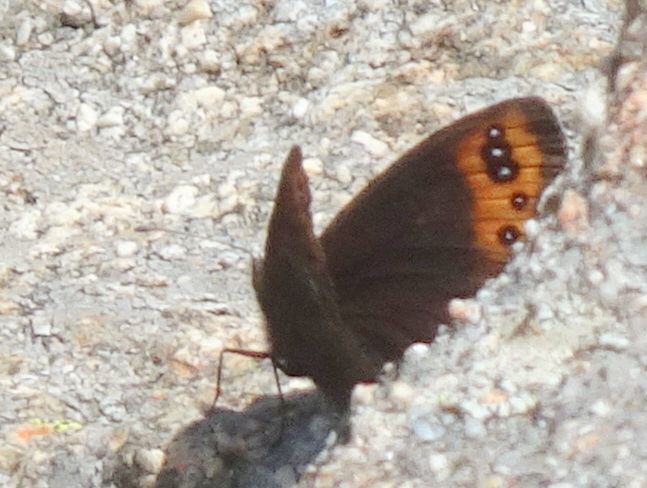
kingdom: Animalia
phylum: Arthropoda
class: Insecta
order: Lepidoptera
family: Nymphalidae
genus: Erebia
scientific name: Erebia triarius
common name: De prunner’s ringlet
